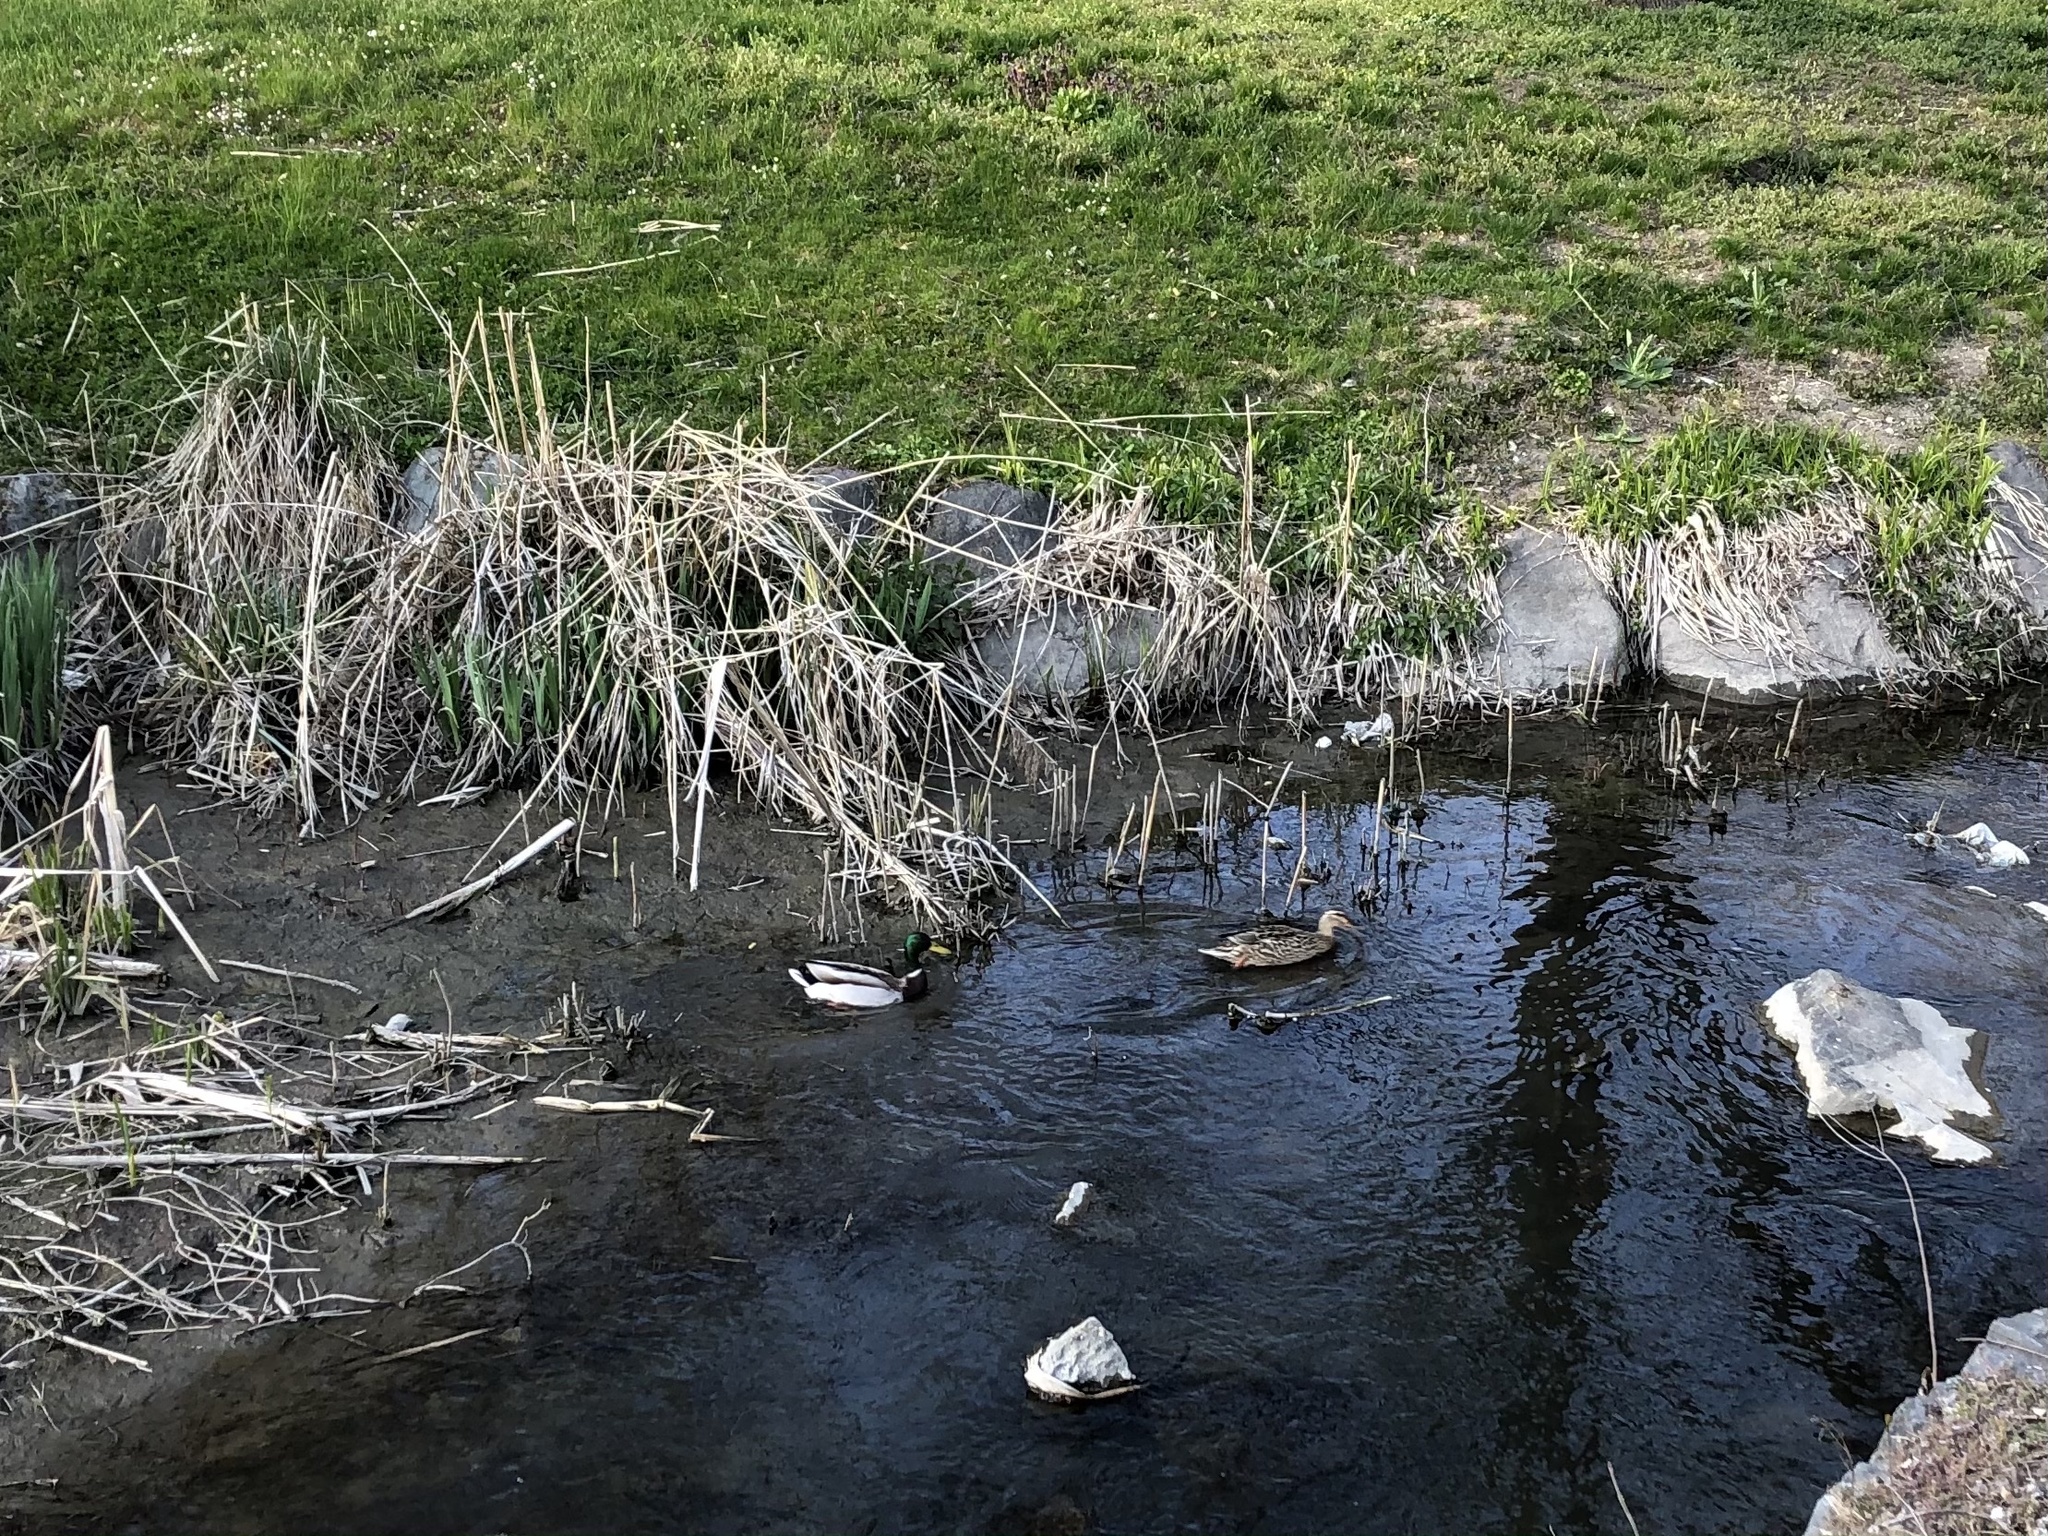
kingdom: Animalia
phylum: Chordata
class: Aves
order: Anseriformes
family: Anatidae
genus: Anas
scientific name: Anas platyrhynchos
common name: Mallard
